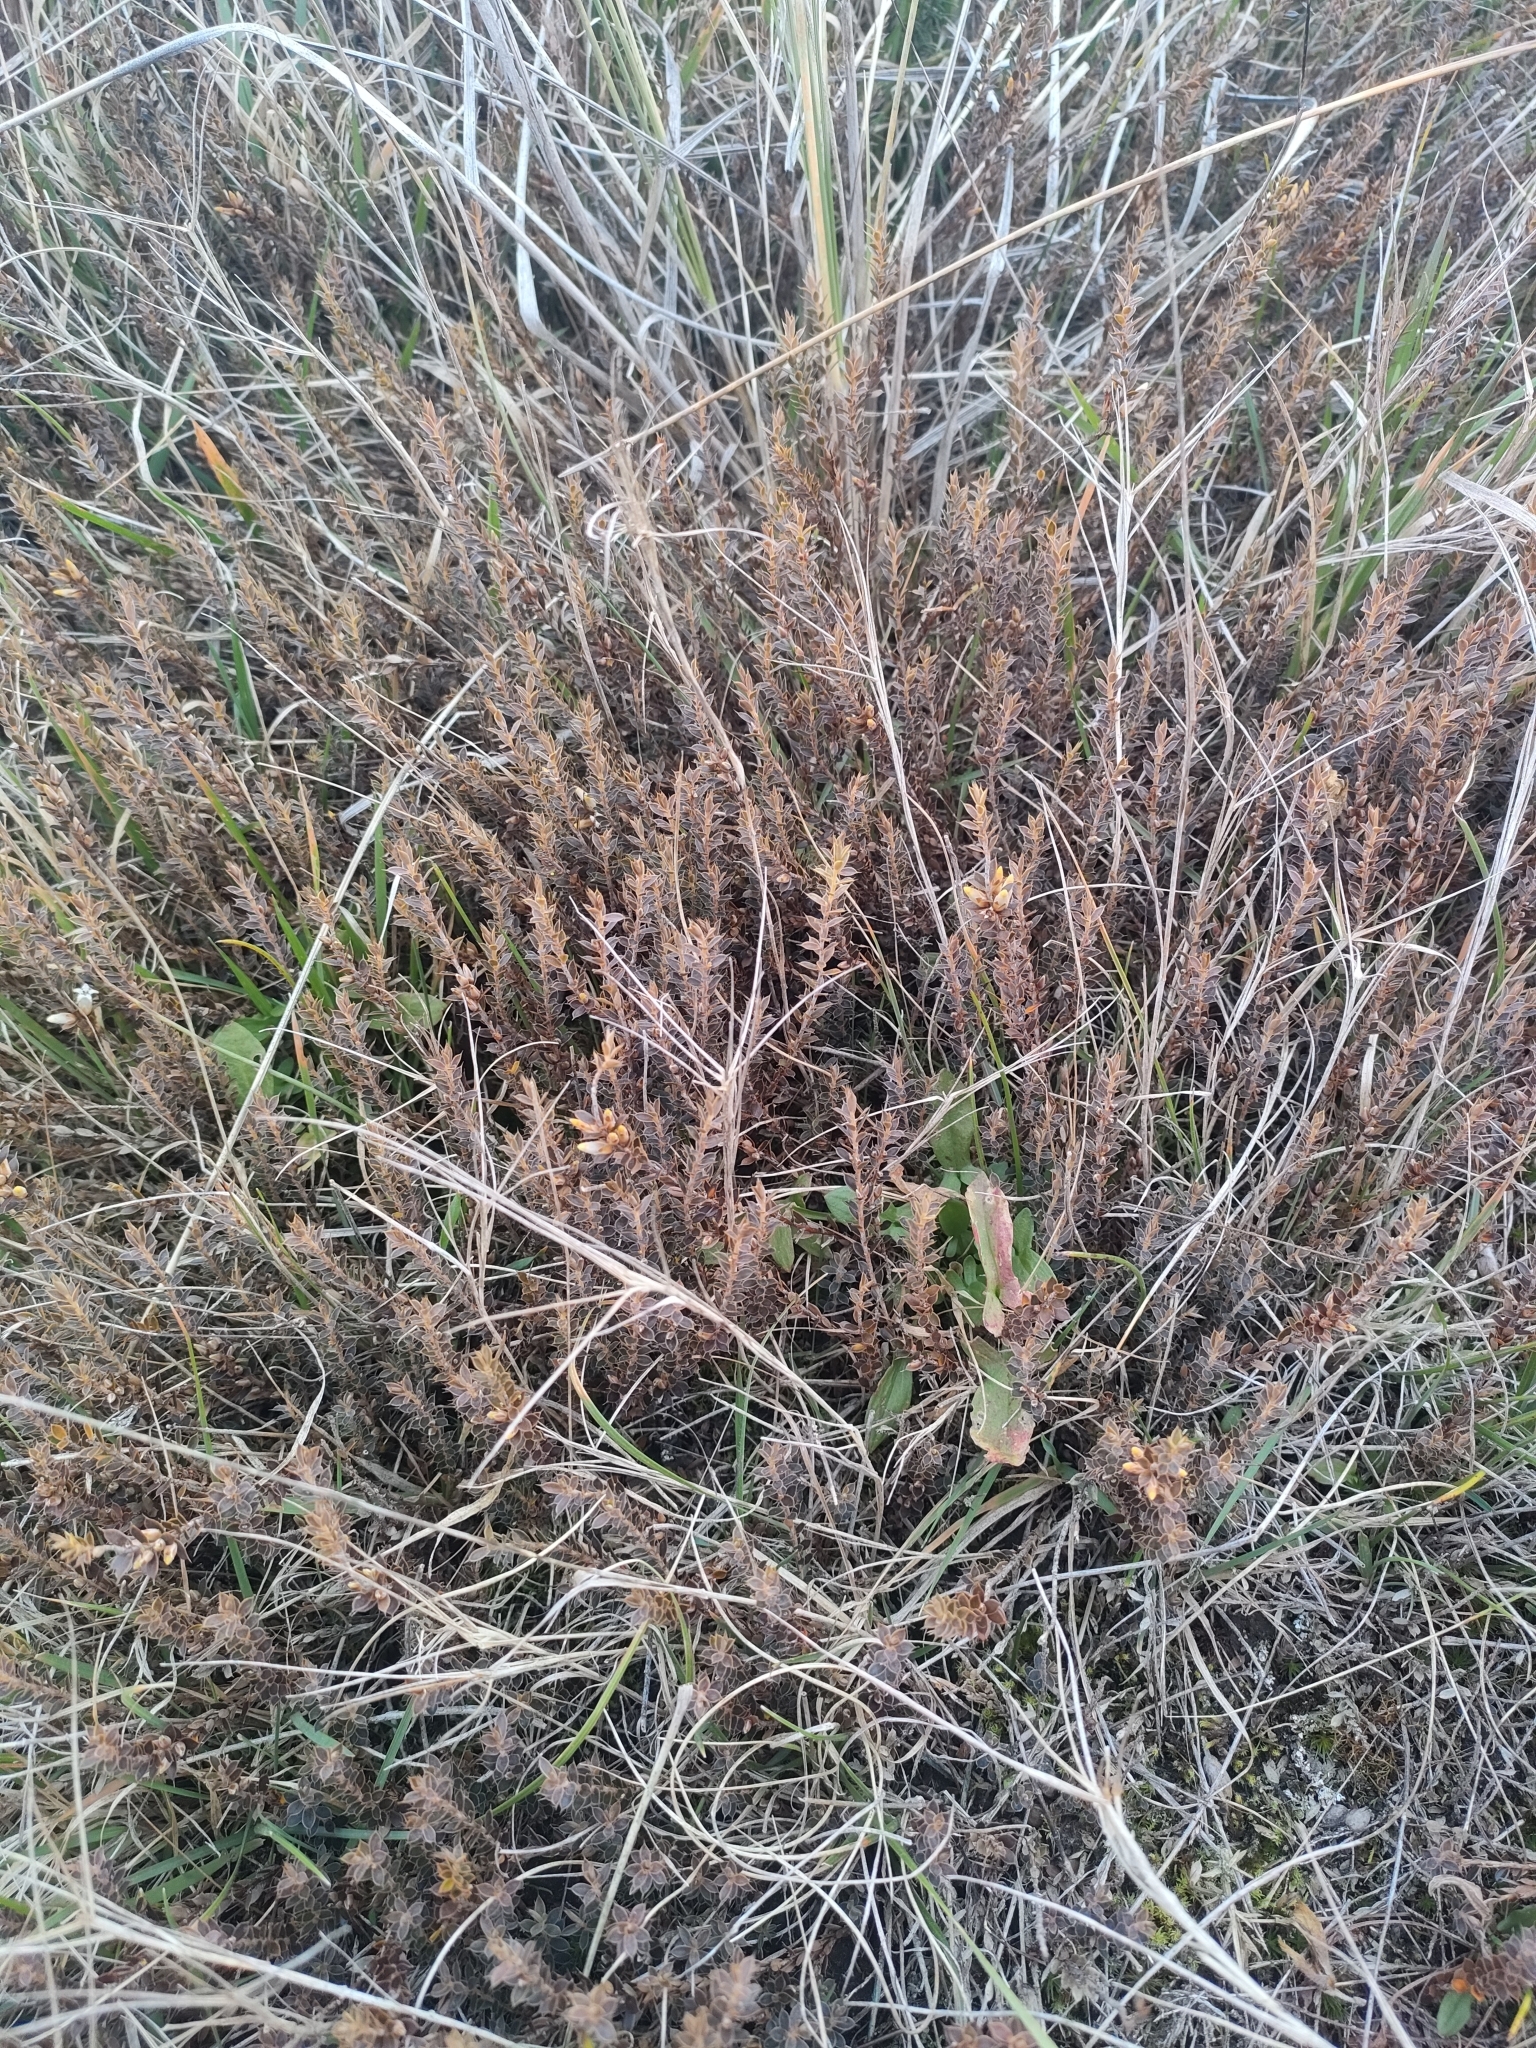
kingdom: Plantae
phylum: Tracheophyta
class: Magnoliopsida
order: Ericales
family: Ericaceae
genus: Styphelia
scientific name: Styphelia nesophila
